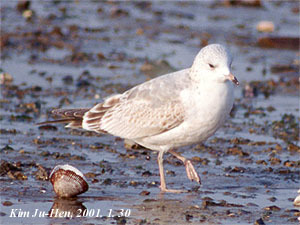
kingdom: Animalia
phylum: Chordata
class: Aves
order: Charadriiformes
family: Laridae
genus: Larus
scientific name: Larus canus
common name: Mew gull
